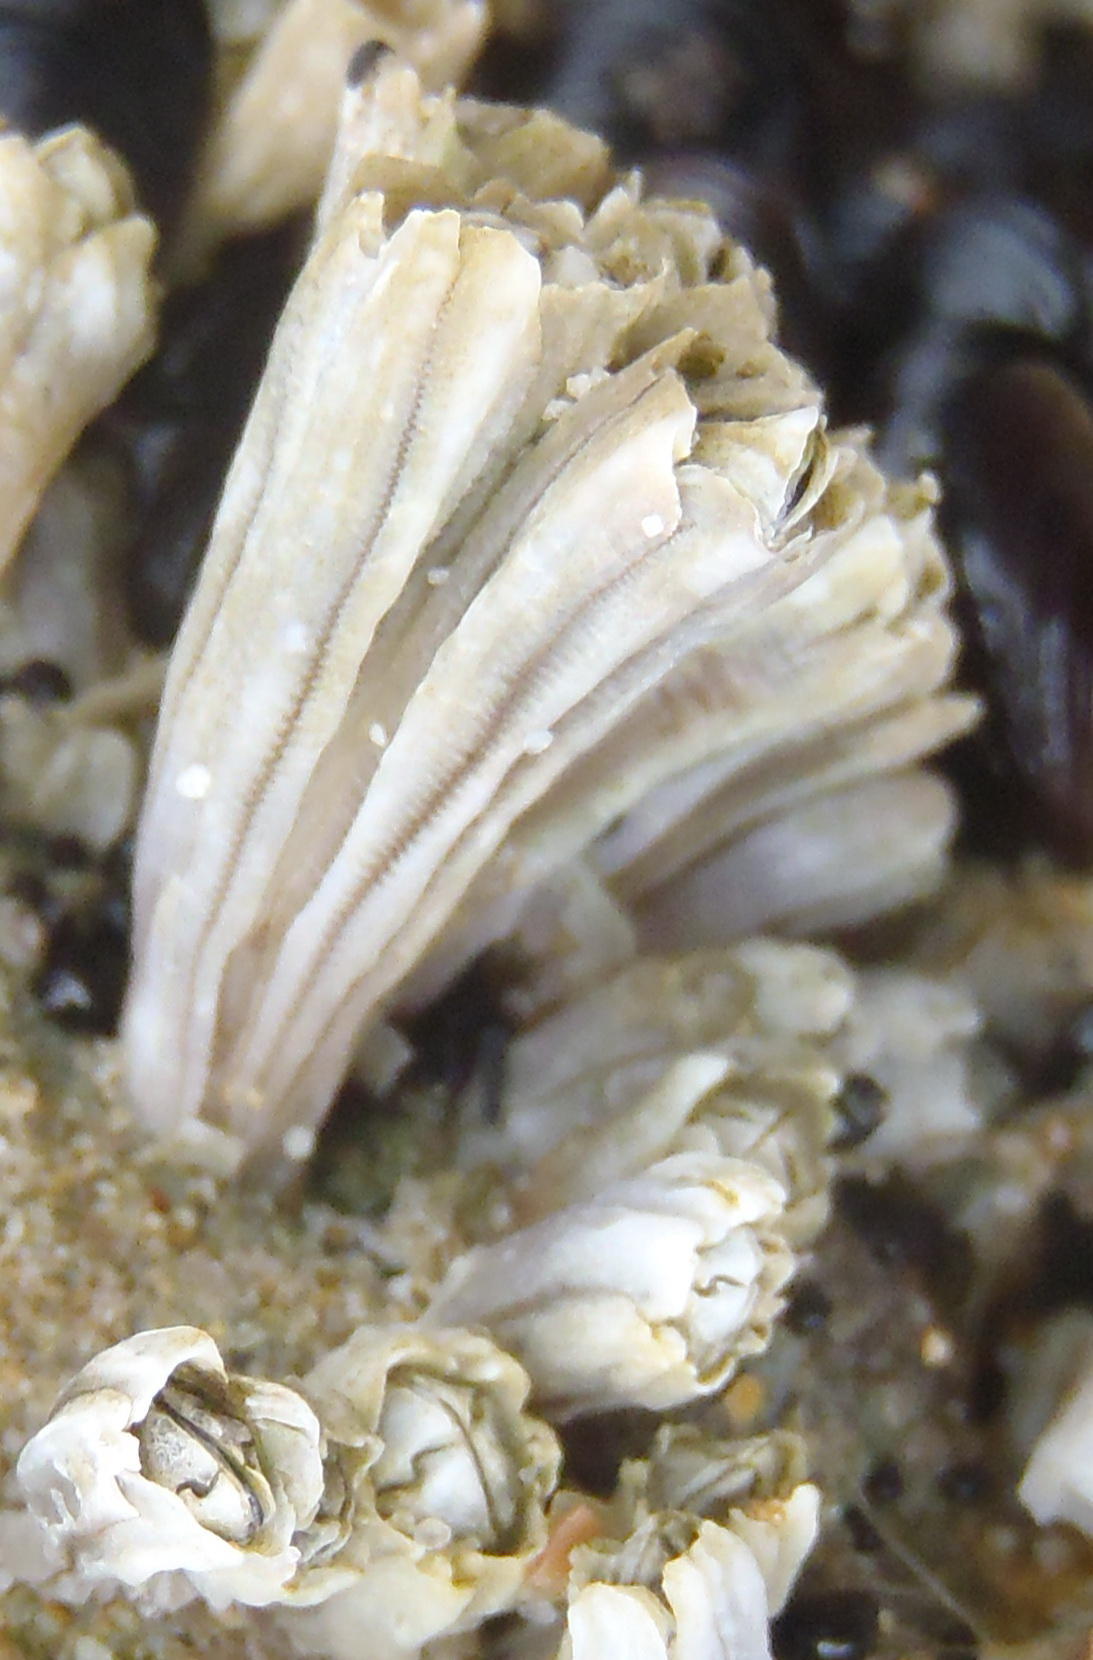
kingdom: Animalia
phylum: Arthropoda
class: Maxillopoda
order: Sessilia
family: Chthamalidae
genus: Chthamalus
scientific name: Chthamalus dentatus
